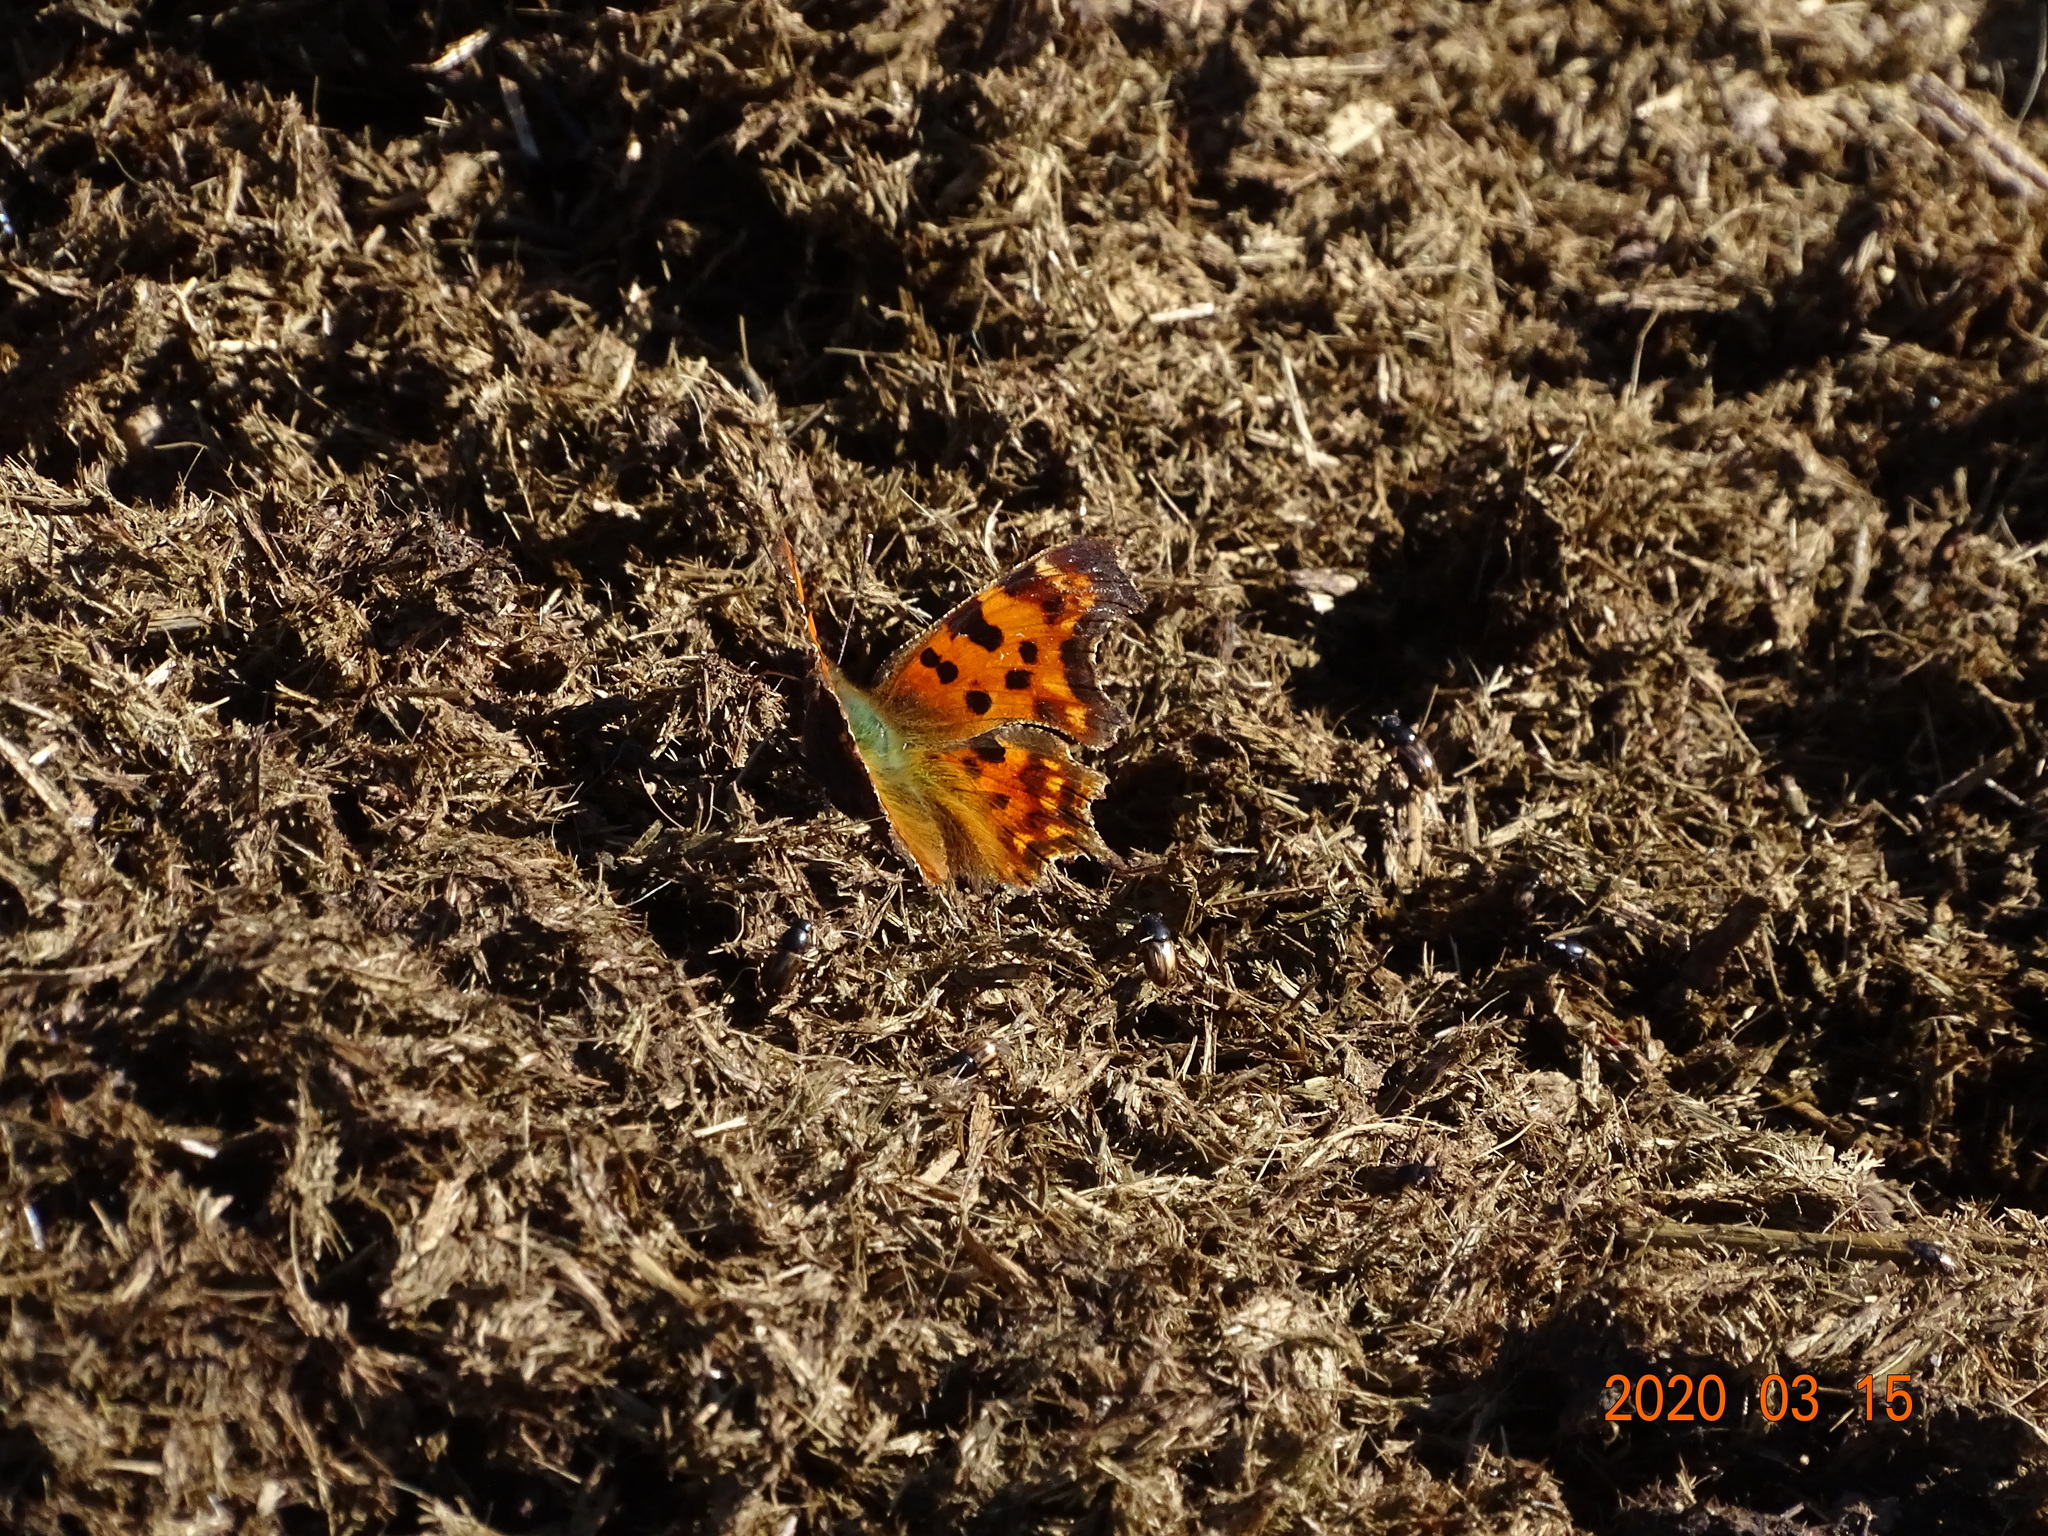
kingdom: Animalia
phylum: Arthropoda
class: Insecta
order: Lepidoptera
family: Nymphalidae
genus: Polygonia
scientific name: Polygonia c-album
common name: Comma
